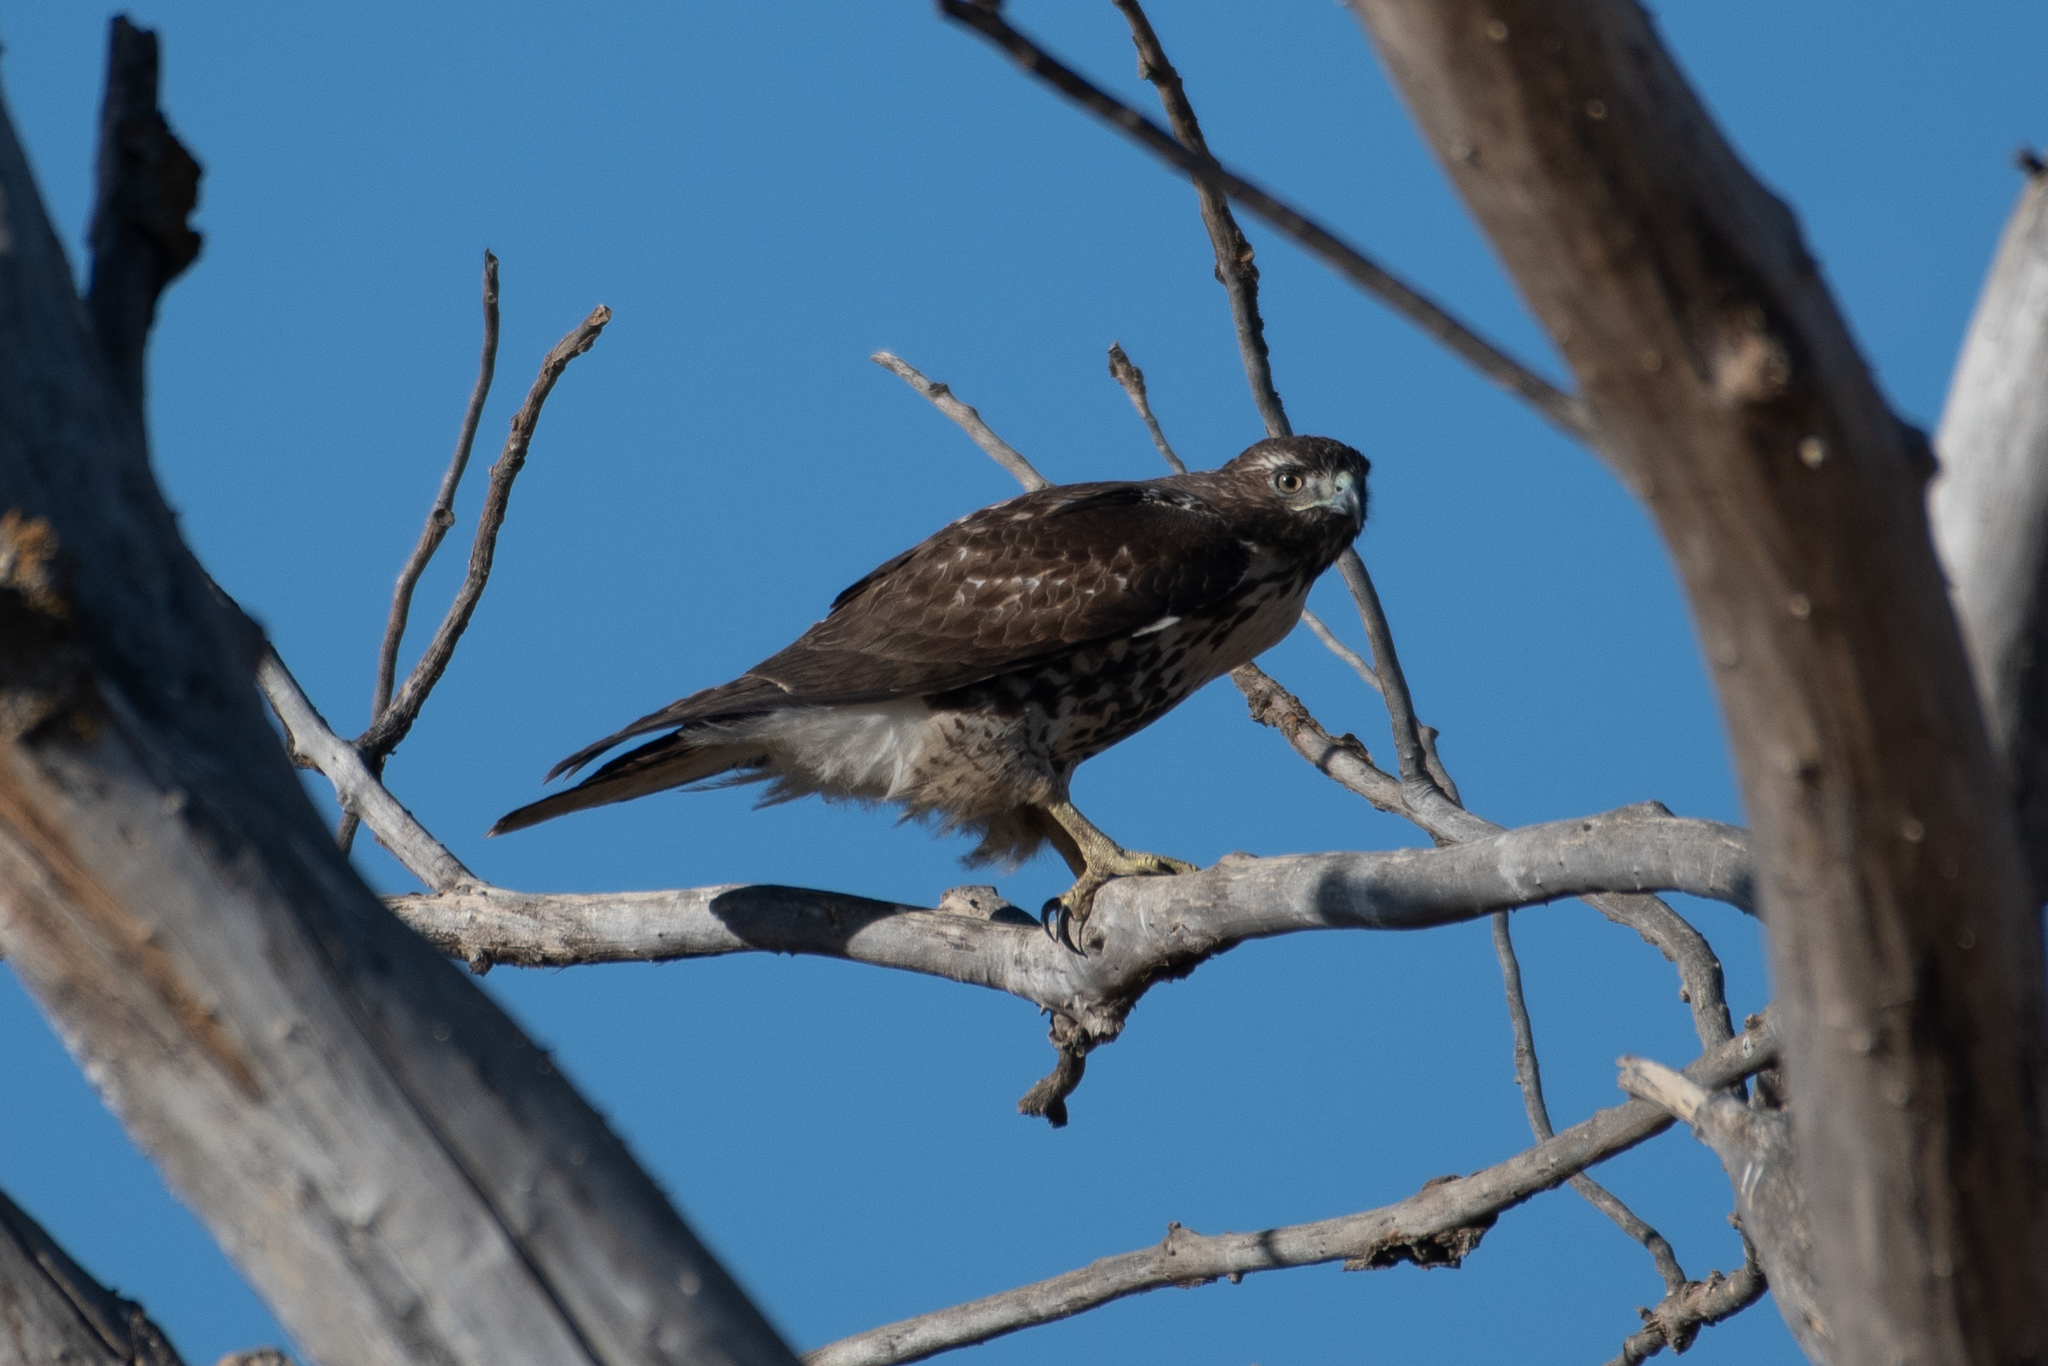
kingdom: Animalia
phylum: Chordata
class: Aves
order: Accipitriformes
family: Accipitridae
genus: Buteo
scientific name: Buteo jamaicensis
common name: Red-tailed hawk
